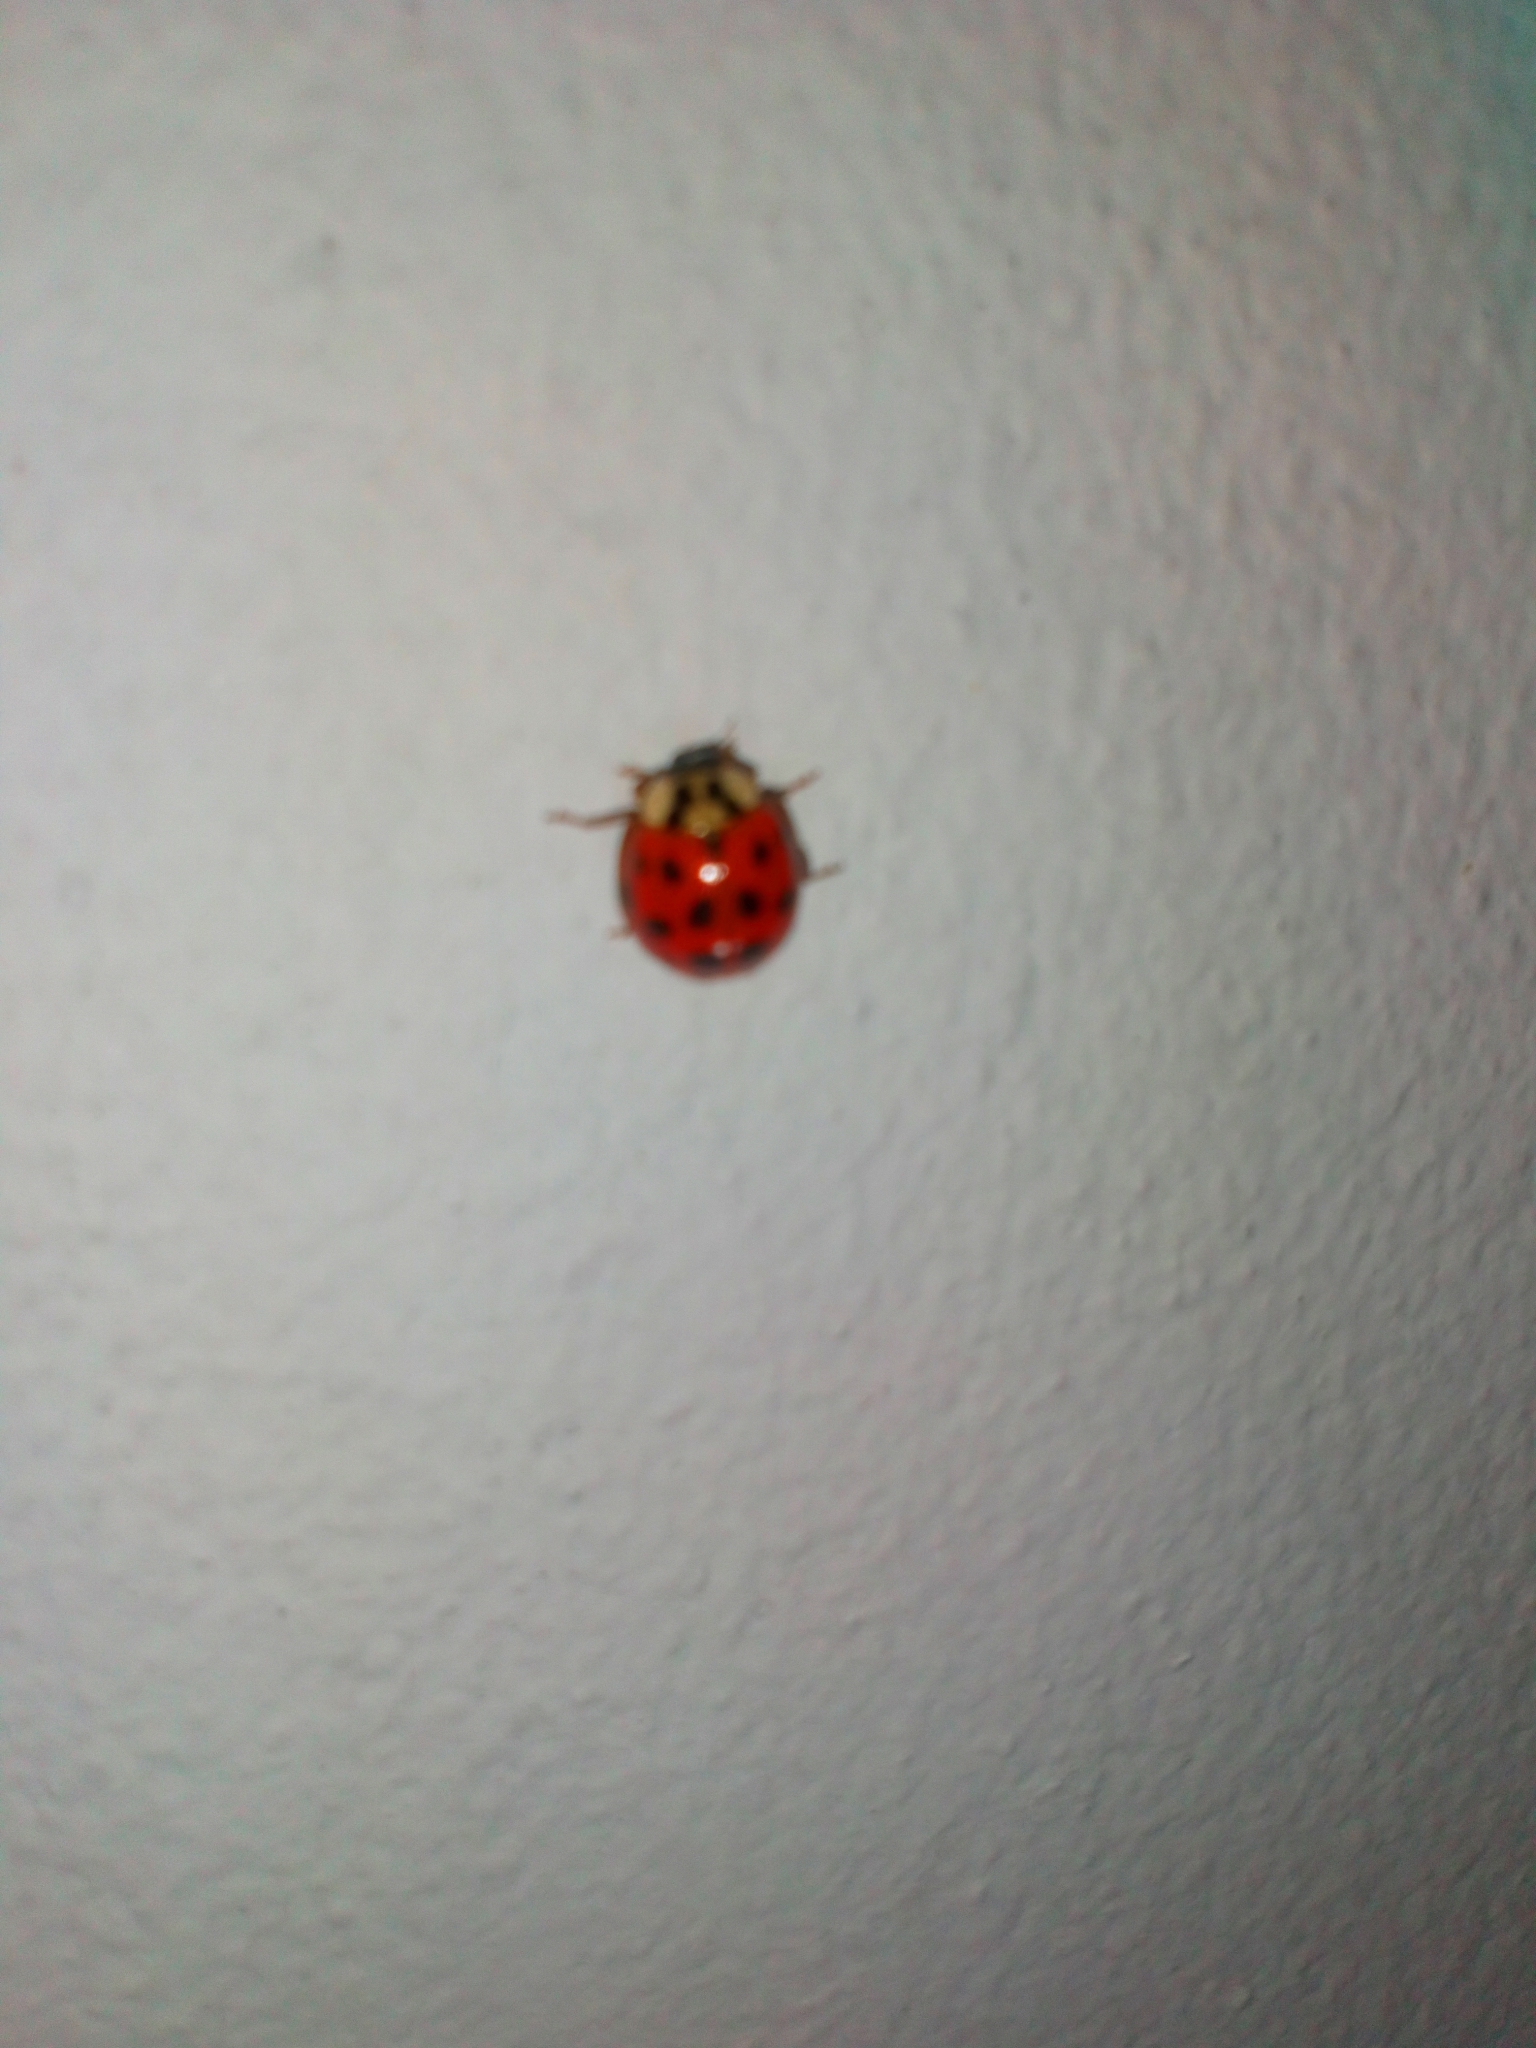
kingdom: Animalia
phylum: Arthropoda
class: Insecta
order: Coleoptera
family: Coccinellidae
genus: Harmonia
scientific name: Harmonia axyridis
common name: Harlequin ladybird
